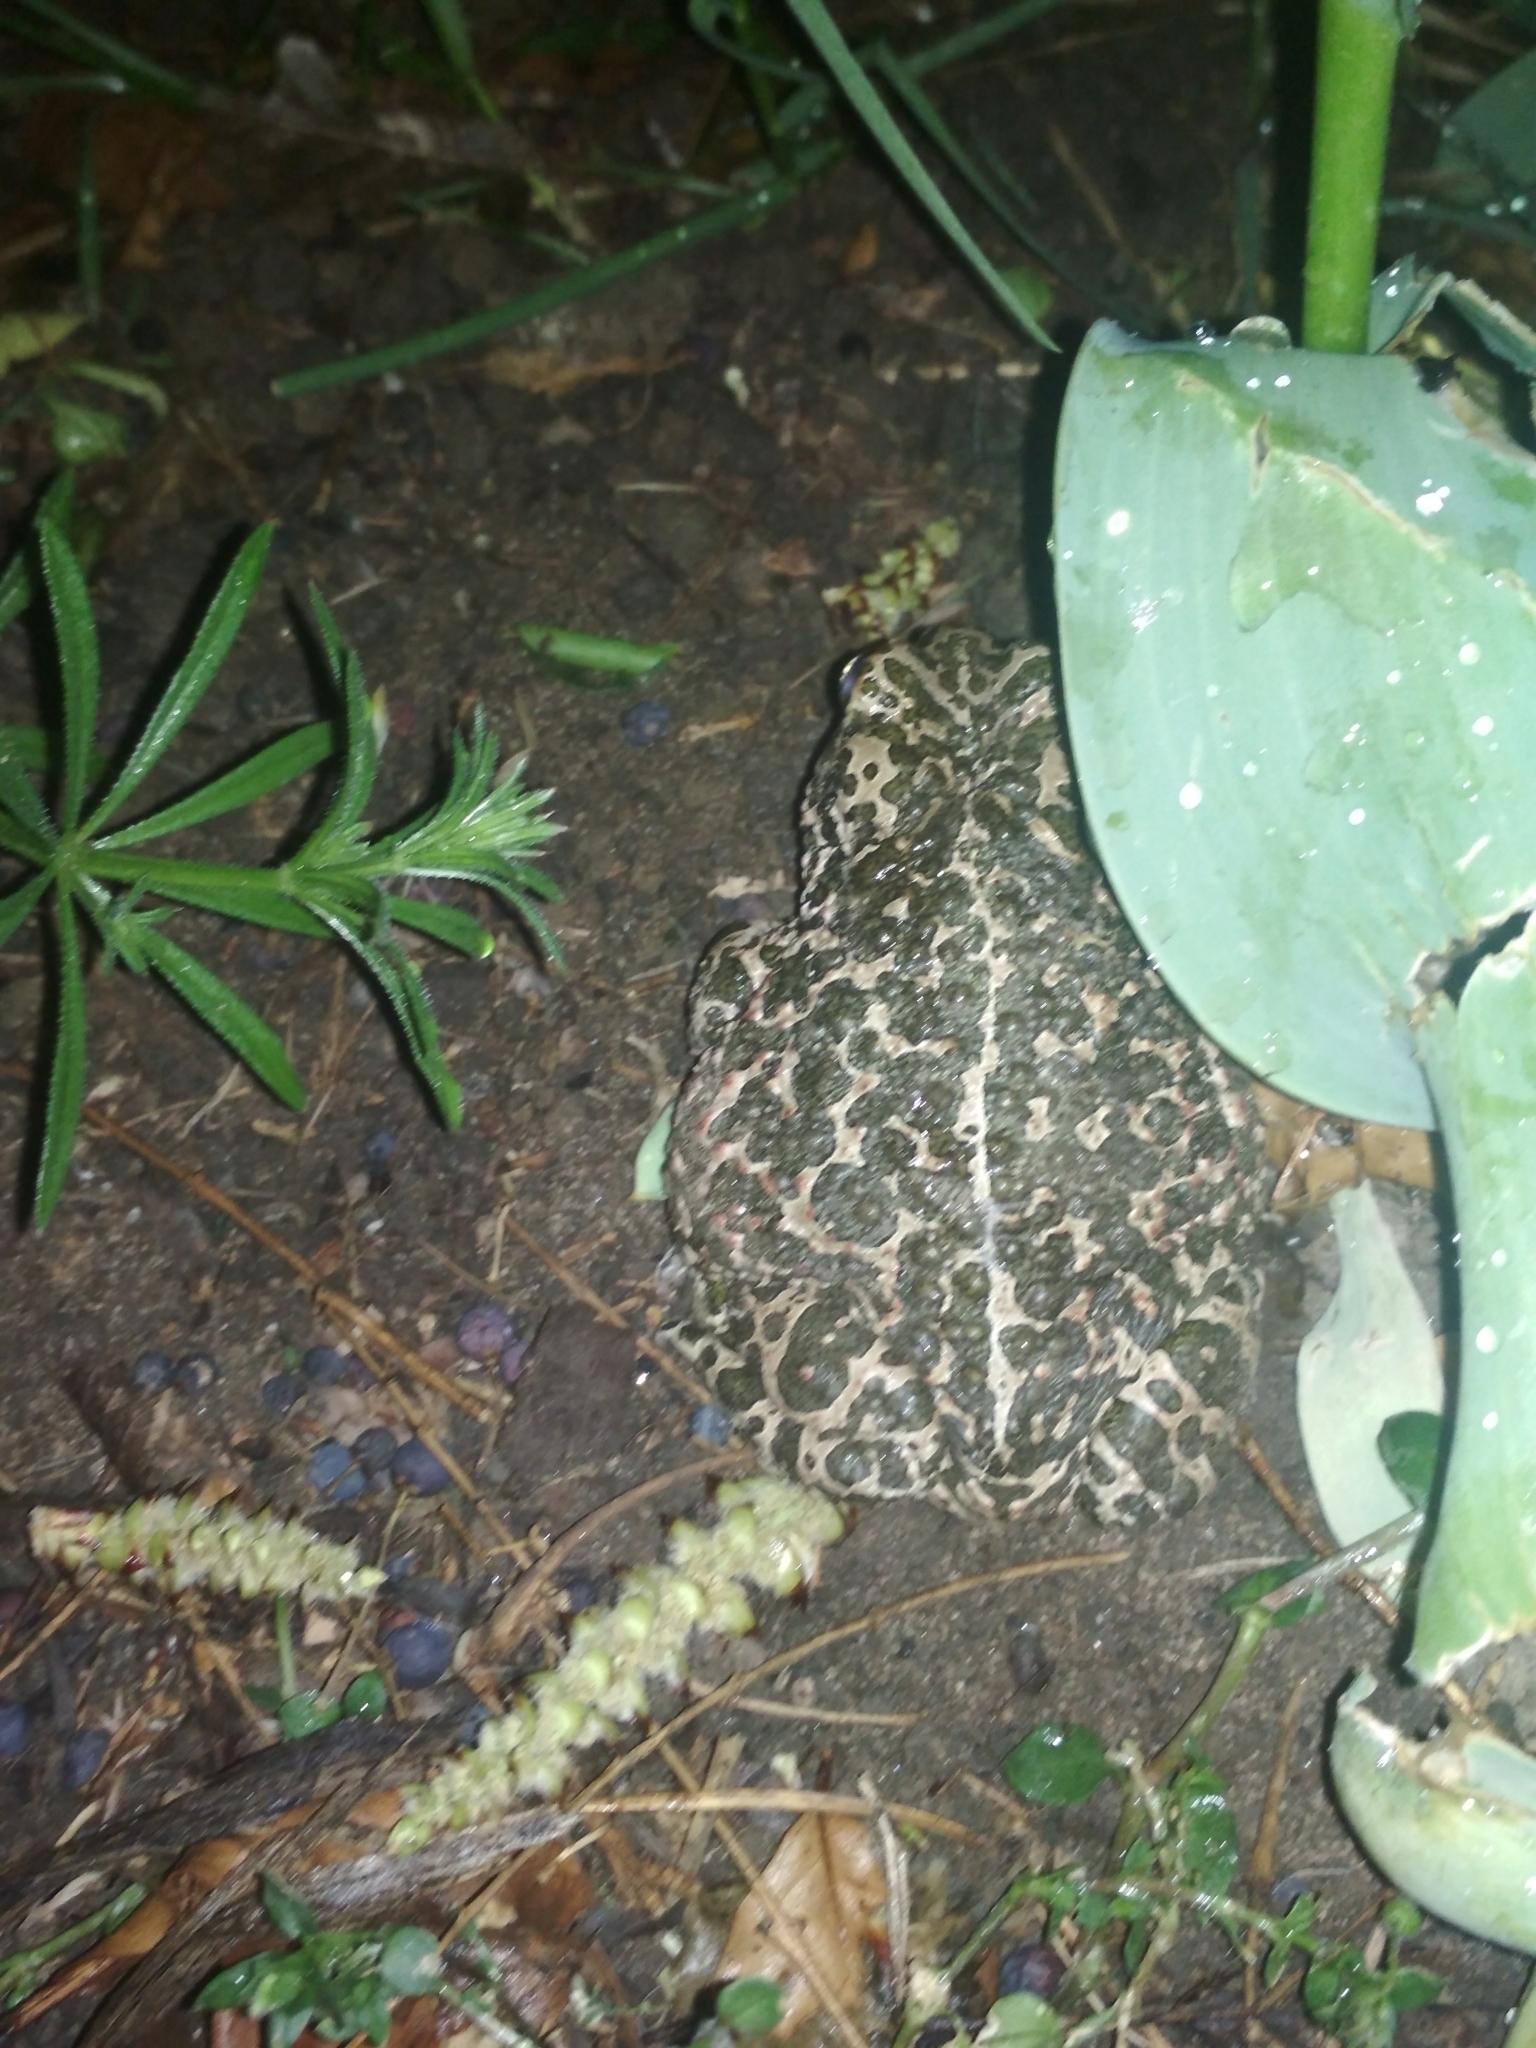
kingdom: Animalia
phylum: Chordata
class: Amphibia
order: Anura
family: Bufonidae
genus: Bufotes
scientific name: Bufotes viridis
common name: European green toad
